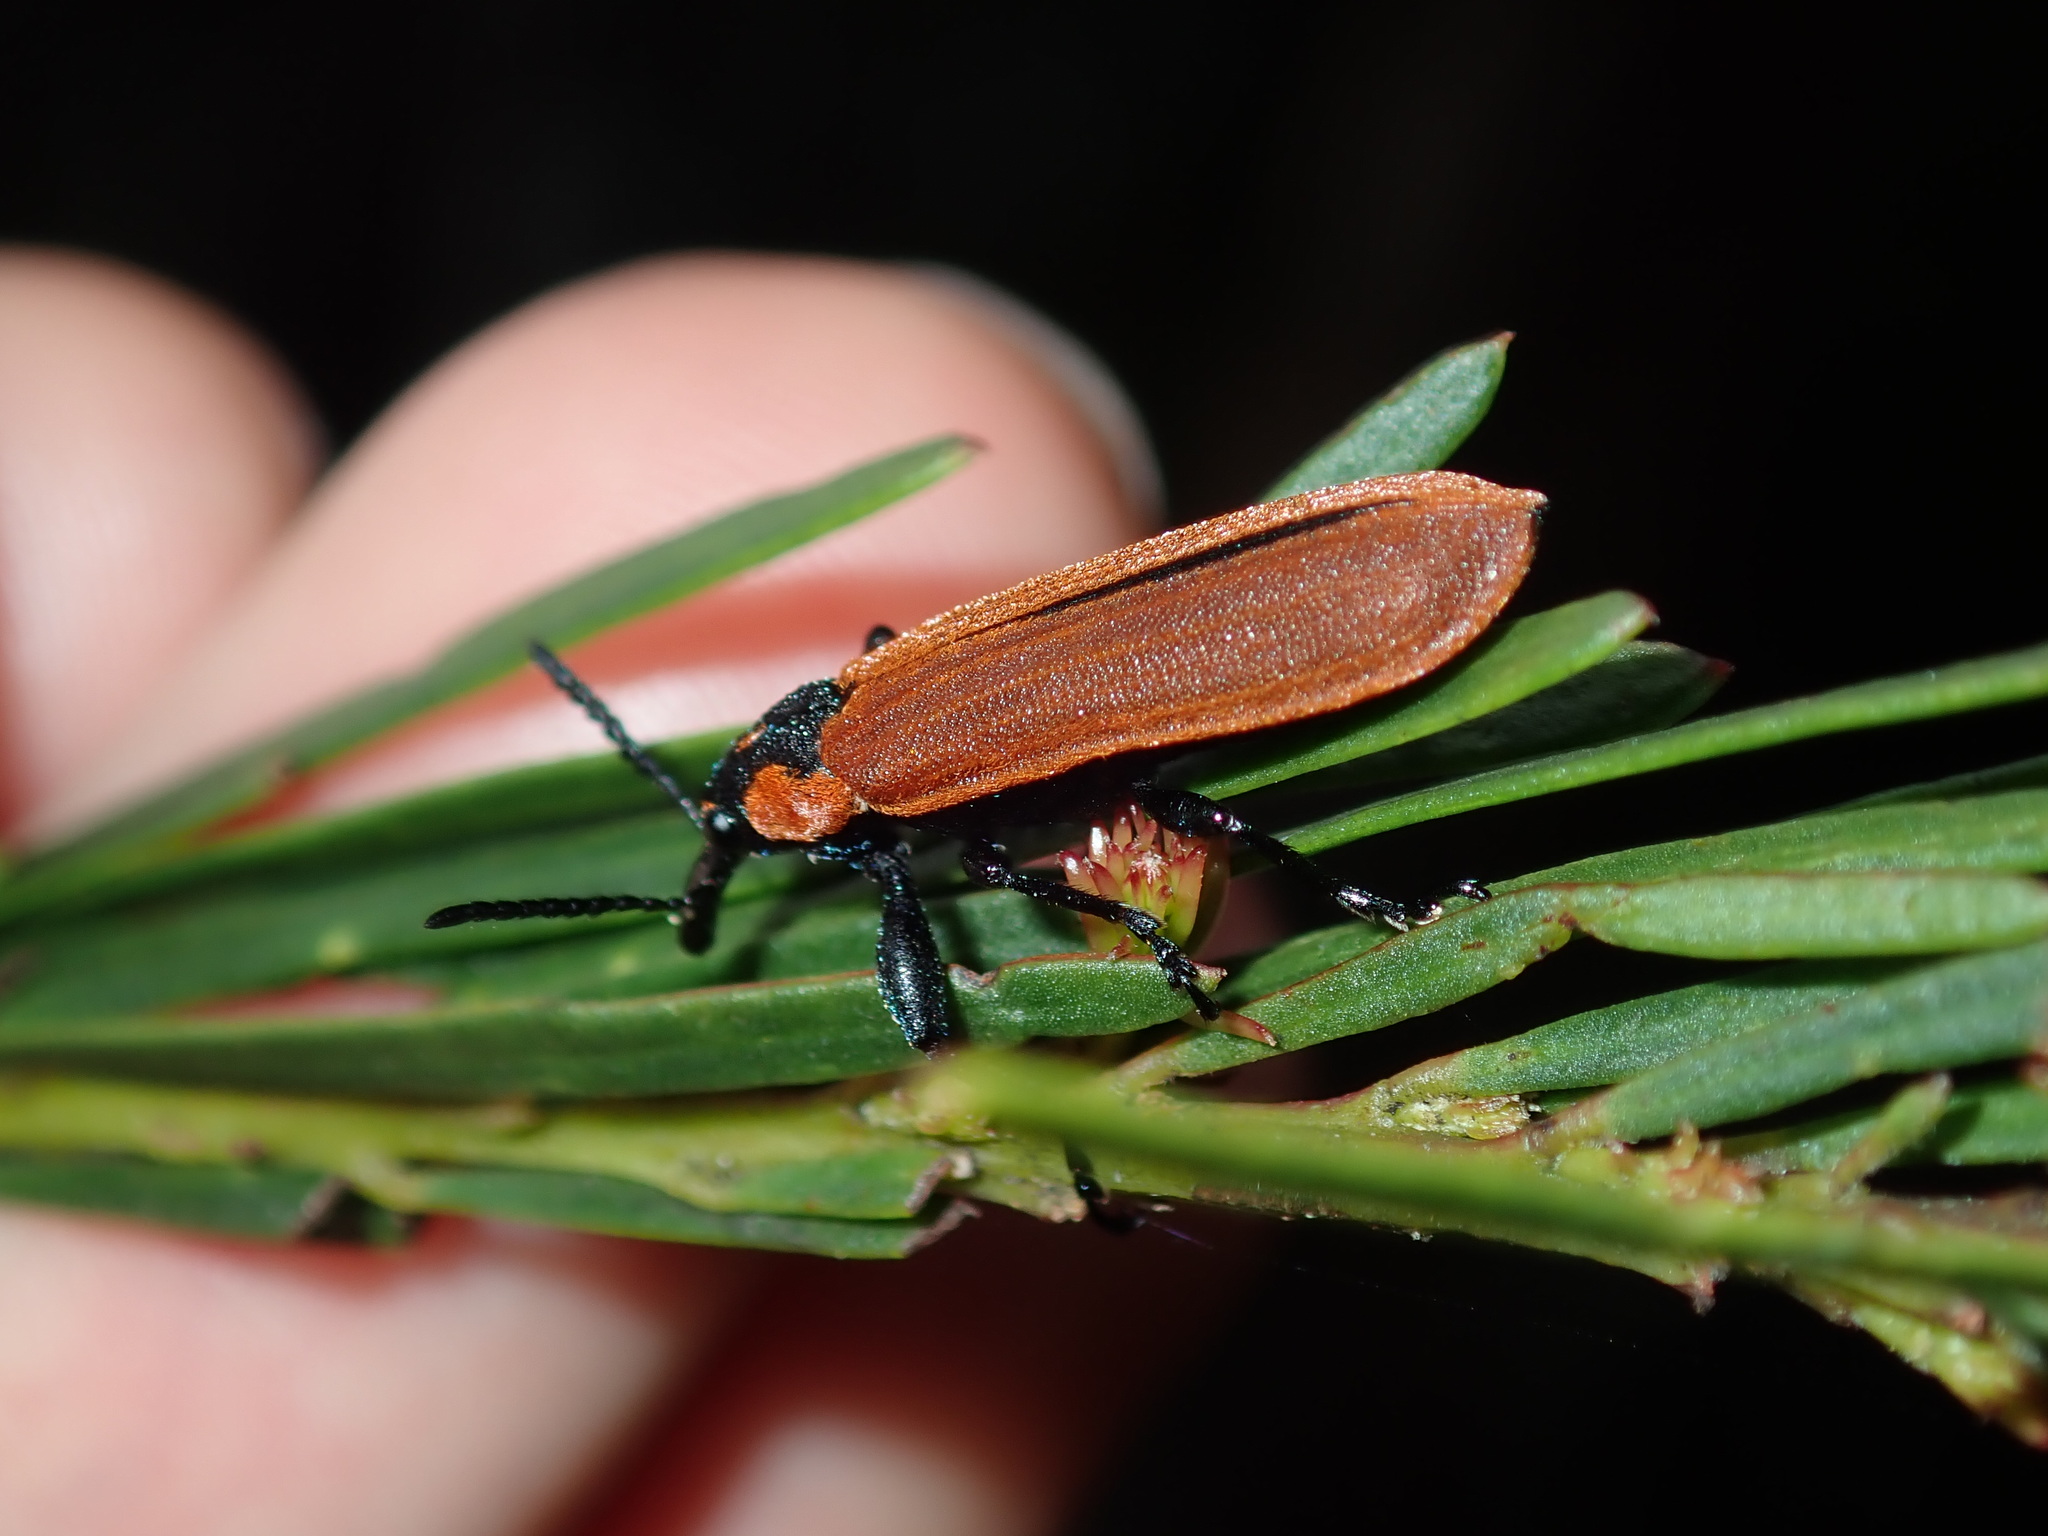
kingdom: Animalia
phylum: Arthropoda
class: Insecta
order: Coleoptera
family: Belidae
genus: Rhinotia
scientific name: Rhinotia haemoptera
